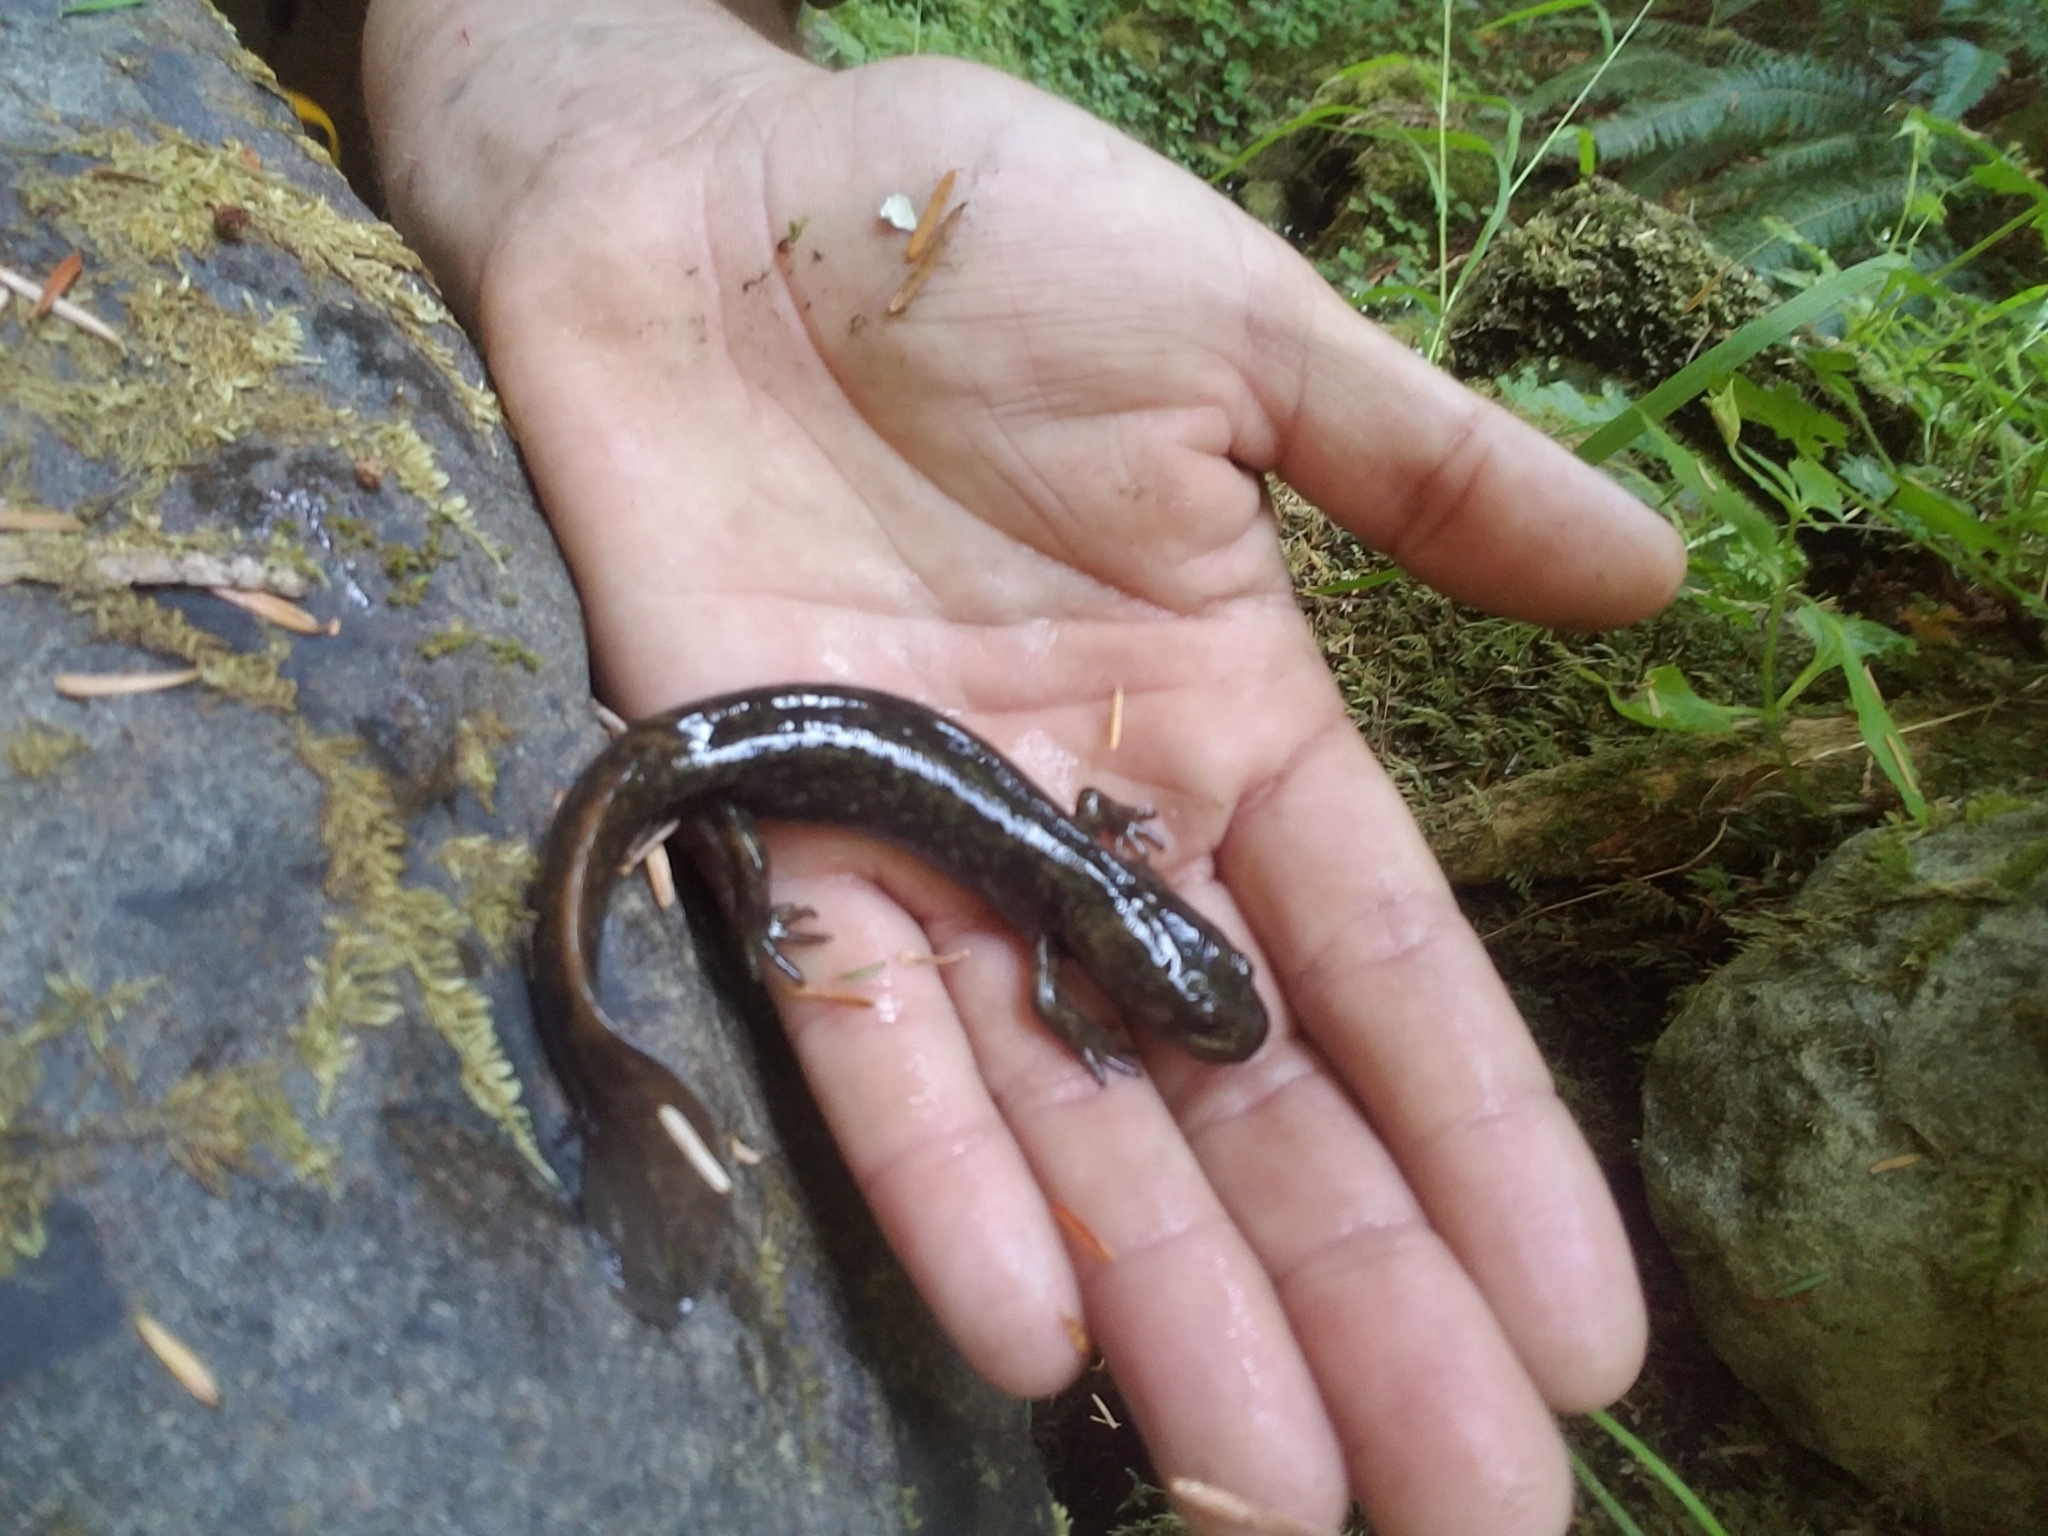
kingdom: Animalia
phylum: Chordata
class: Amphibia
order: Caudata
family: Ambystomatidae
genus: Dicamptodon
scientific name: Dicamptodon copei
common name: Cope's giant salamander
